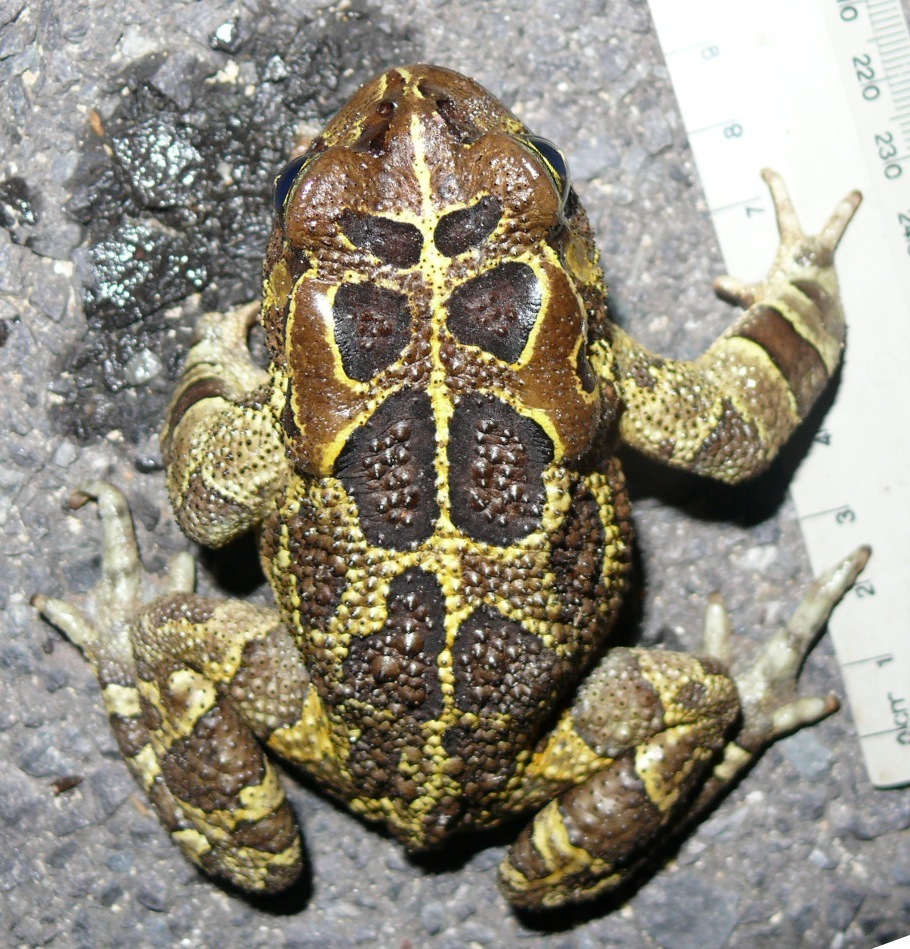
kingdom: Animalia
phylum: Chordata
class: Amphibia
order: Anura
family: Bufonidae
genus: Sclerophrys
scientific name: Sclerophrys pantherina
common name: Panther toad
